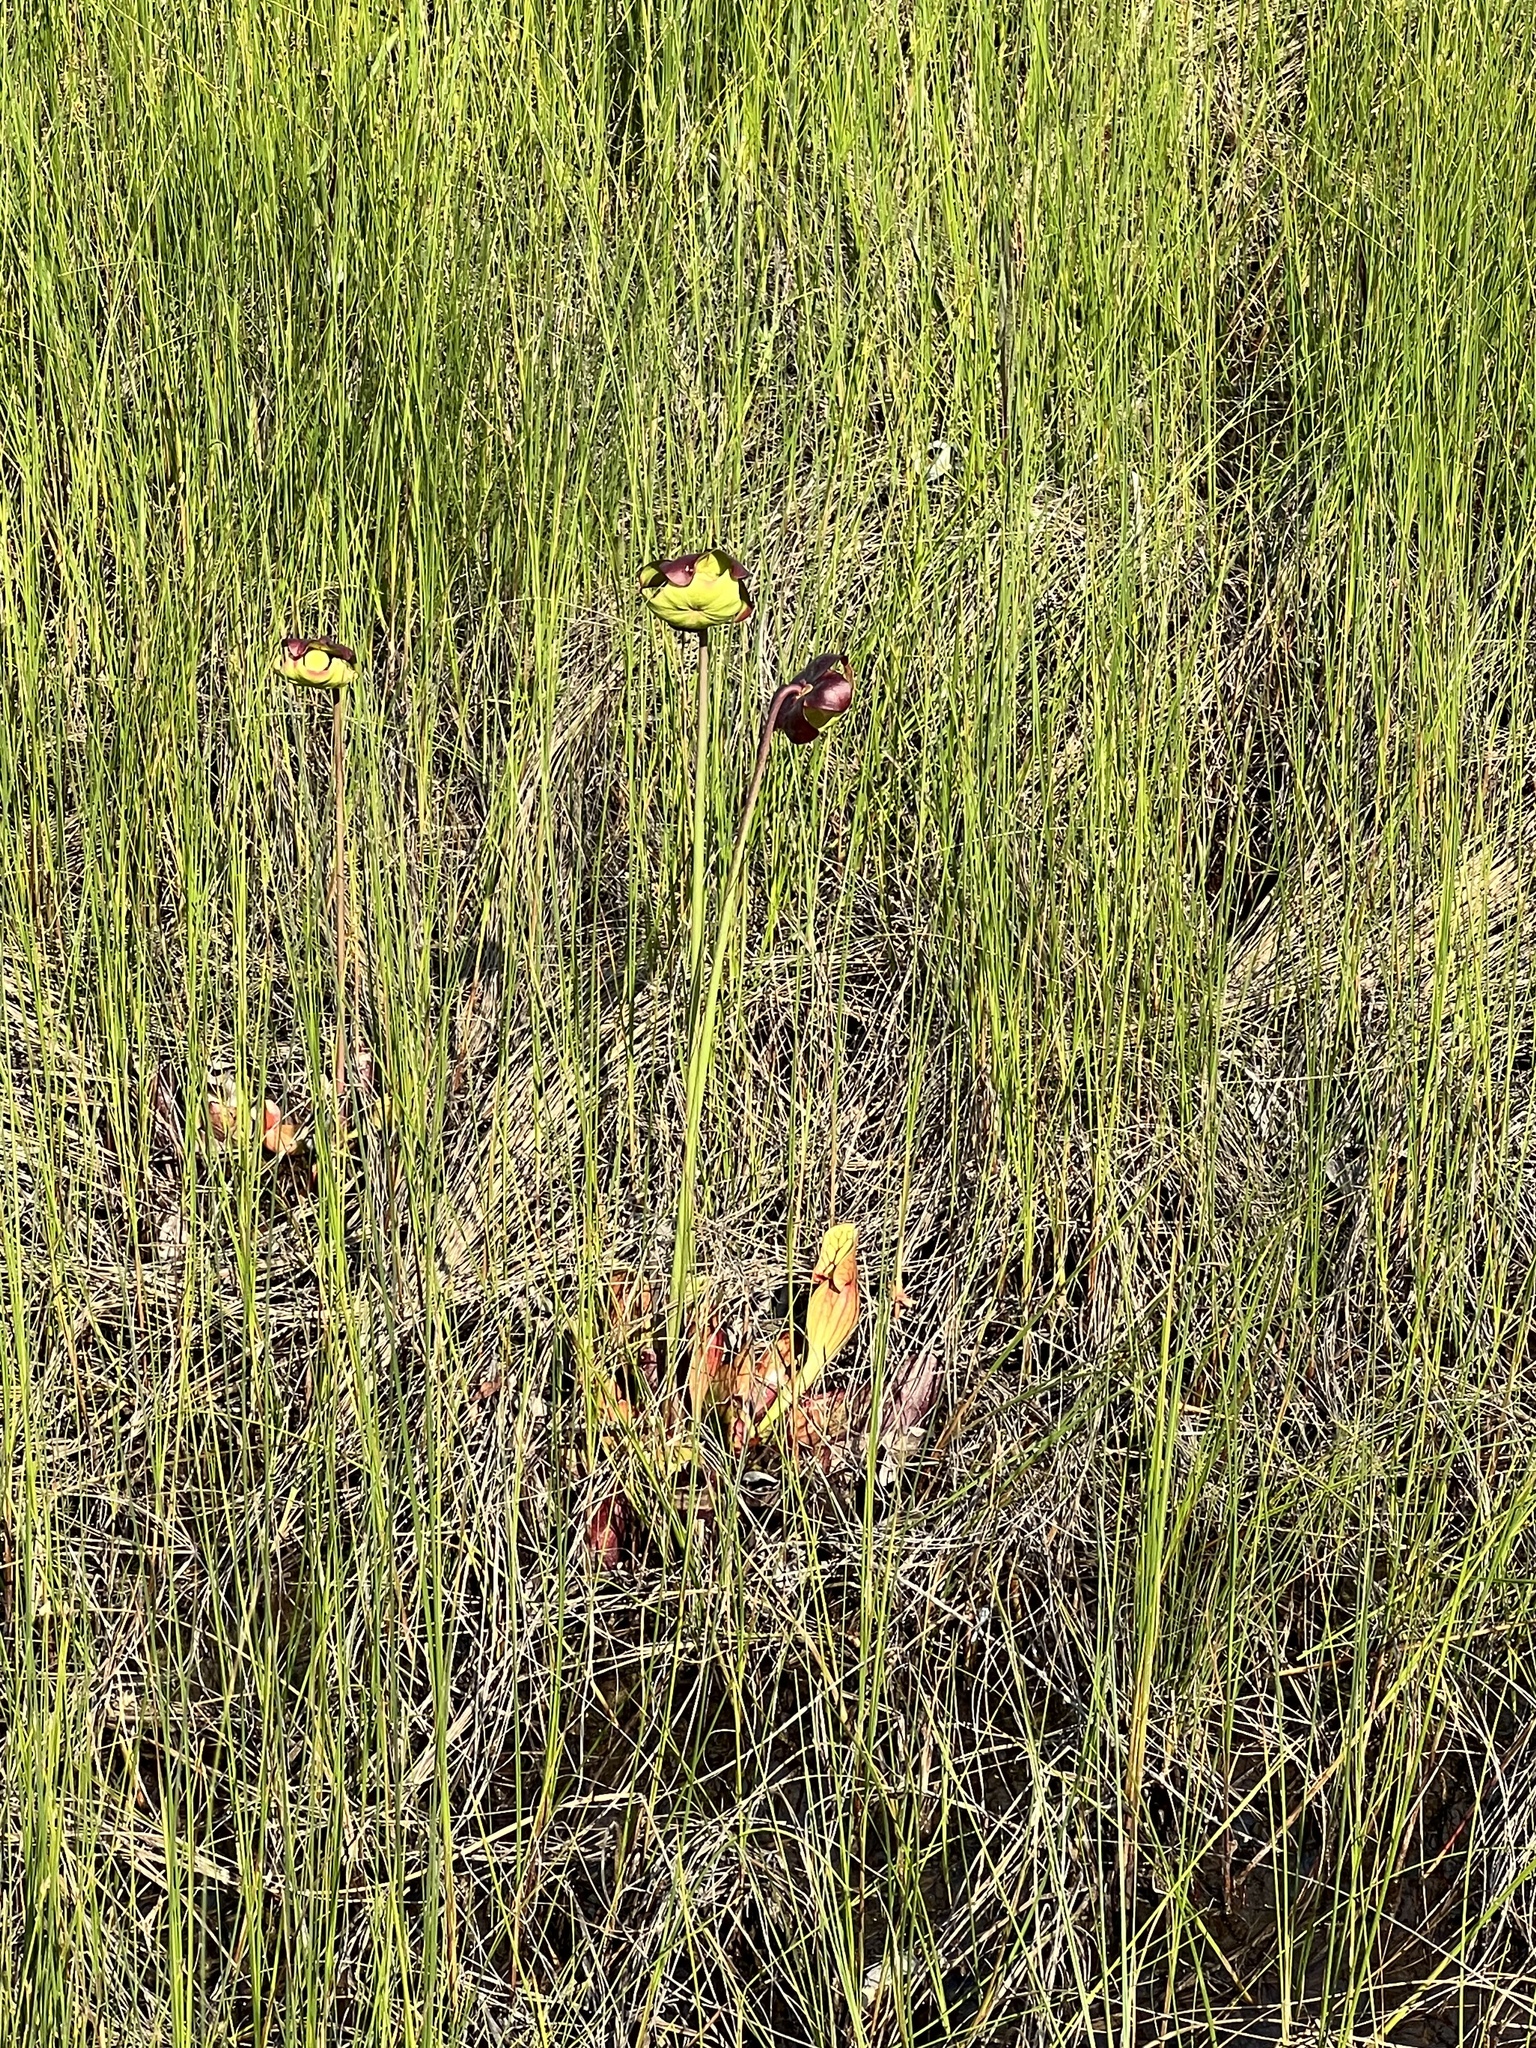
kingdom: Plantae
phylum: Tracheophyta
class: Magnoliopsida
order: Ericales
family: Sarraceniaceae
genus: Sarracenia
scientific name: Sarracenia purpurea
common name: Pitcherplant
